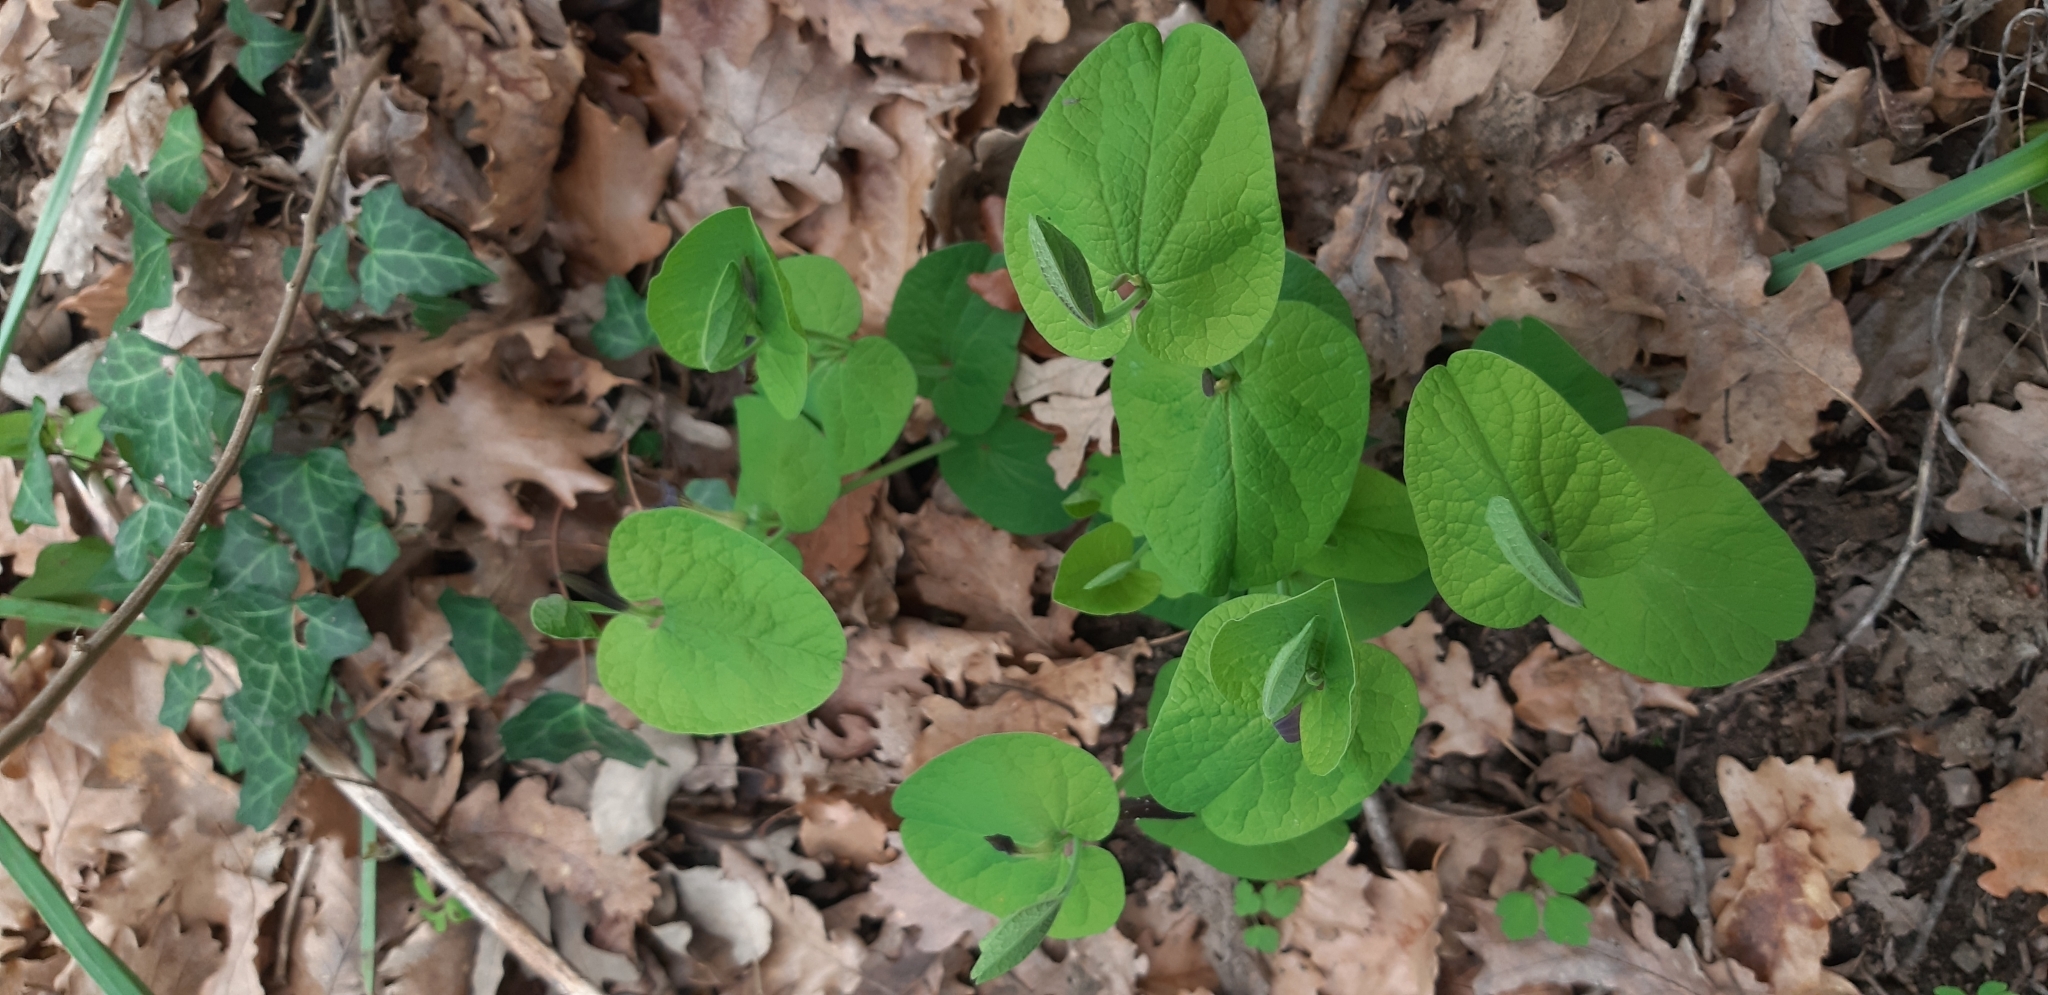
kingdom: Plantae
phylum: Tracheophyta
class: Magnoliopsida
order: Piperales
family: Aristolochiaceae
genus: Aristolochia
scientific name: Aristolochia rotunda
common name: Smearwort
